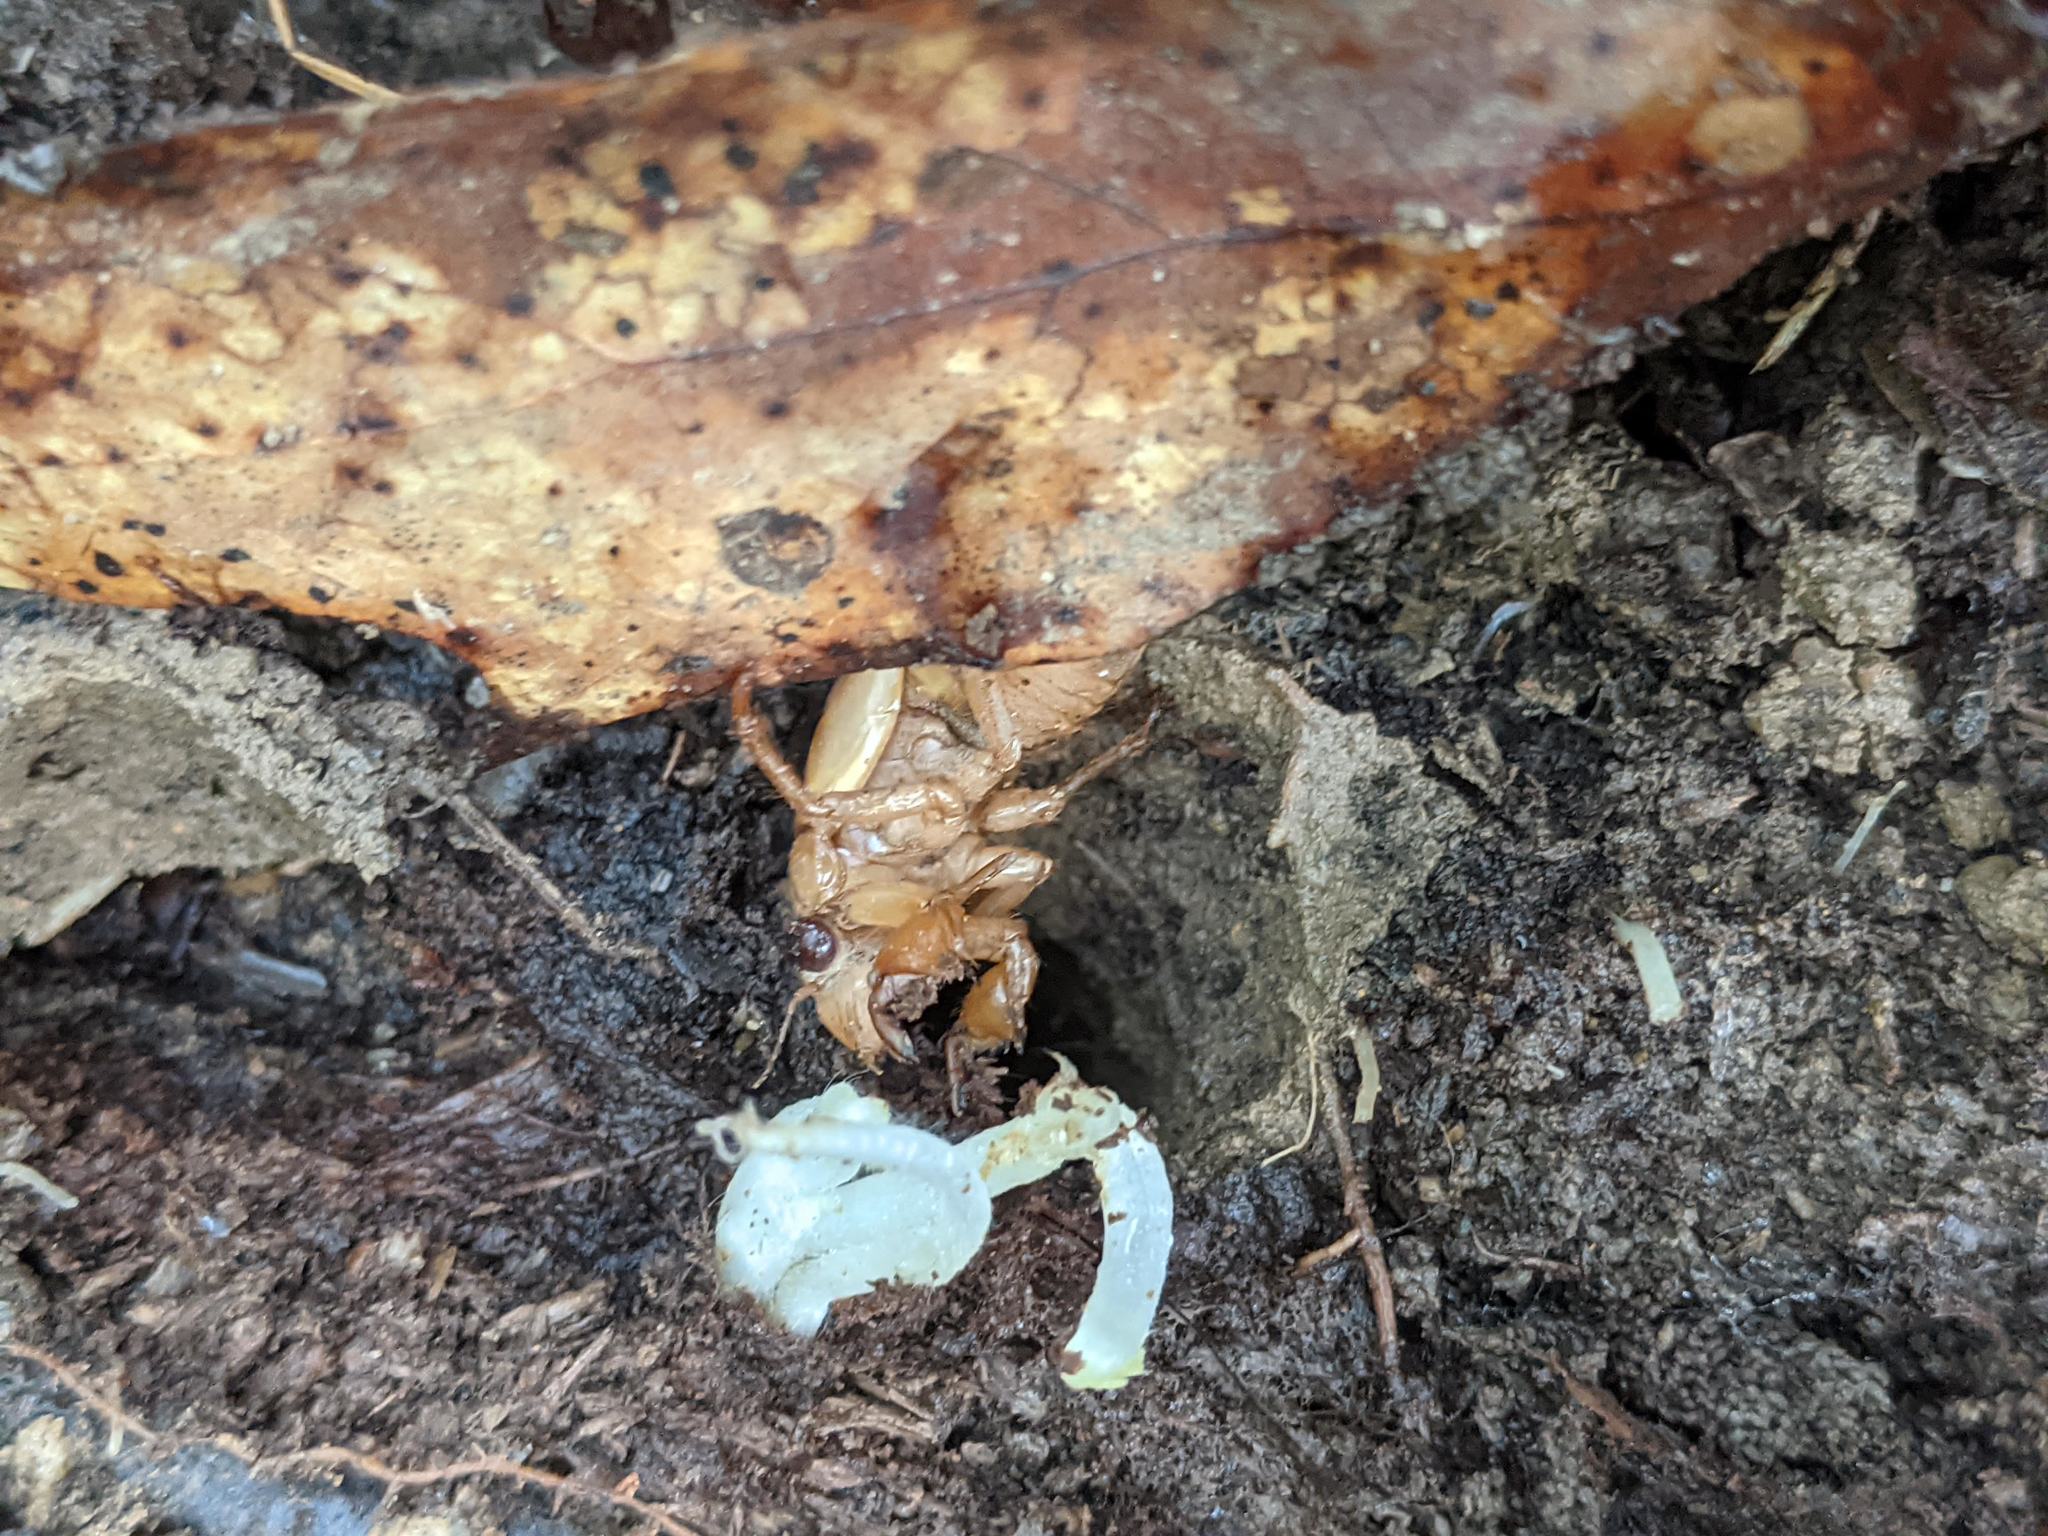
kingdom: Animalia
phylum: Arthropoda
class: Insecta
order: Hemiptera
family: Cicadidae
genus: Magicicada
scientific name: Magicicada
